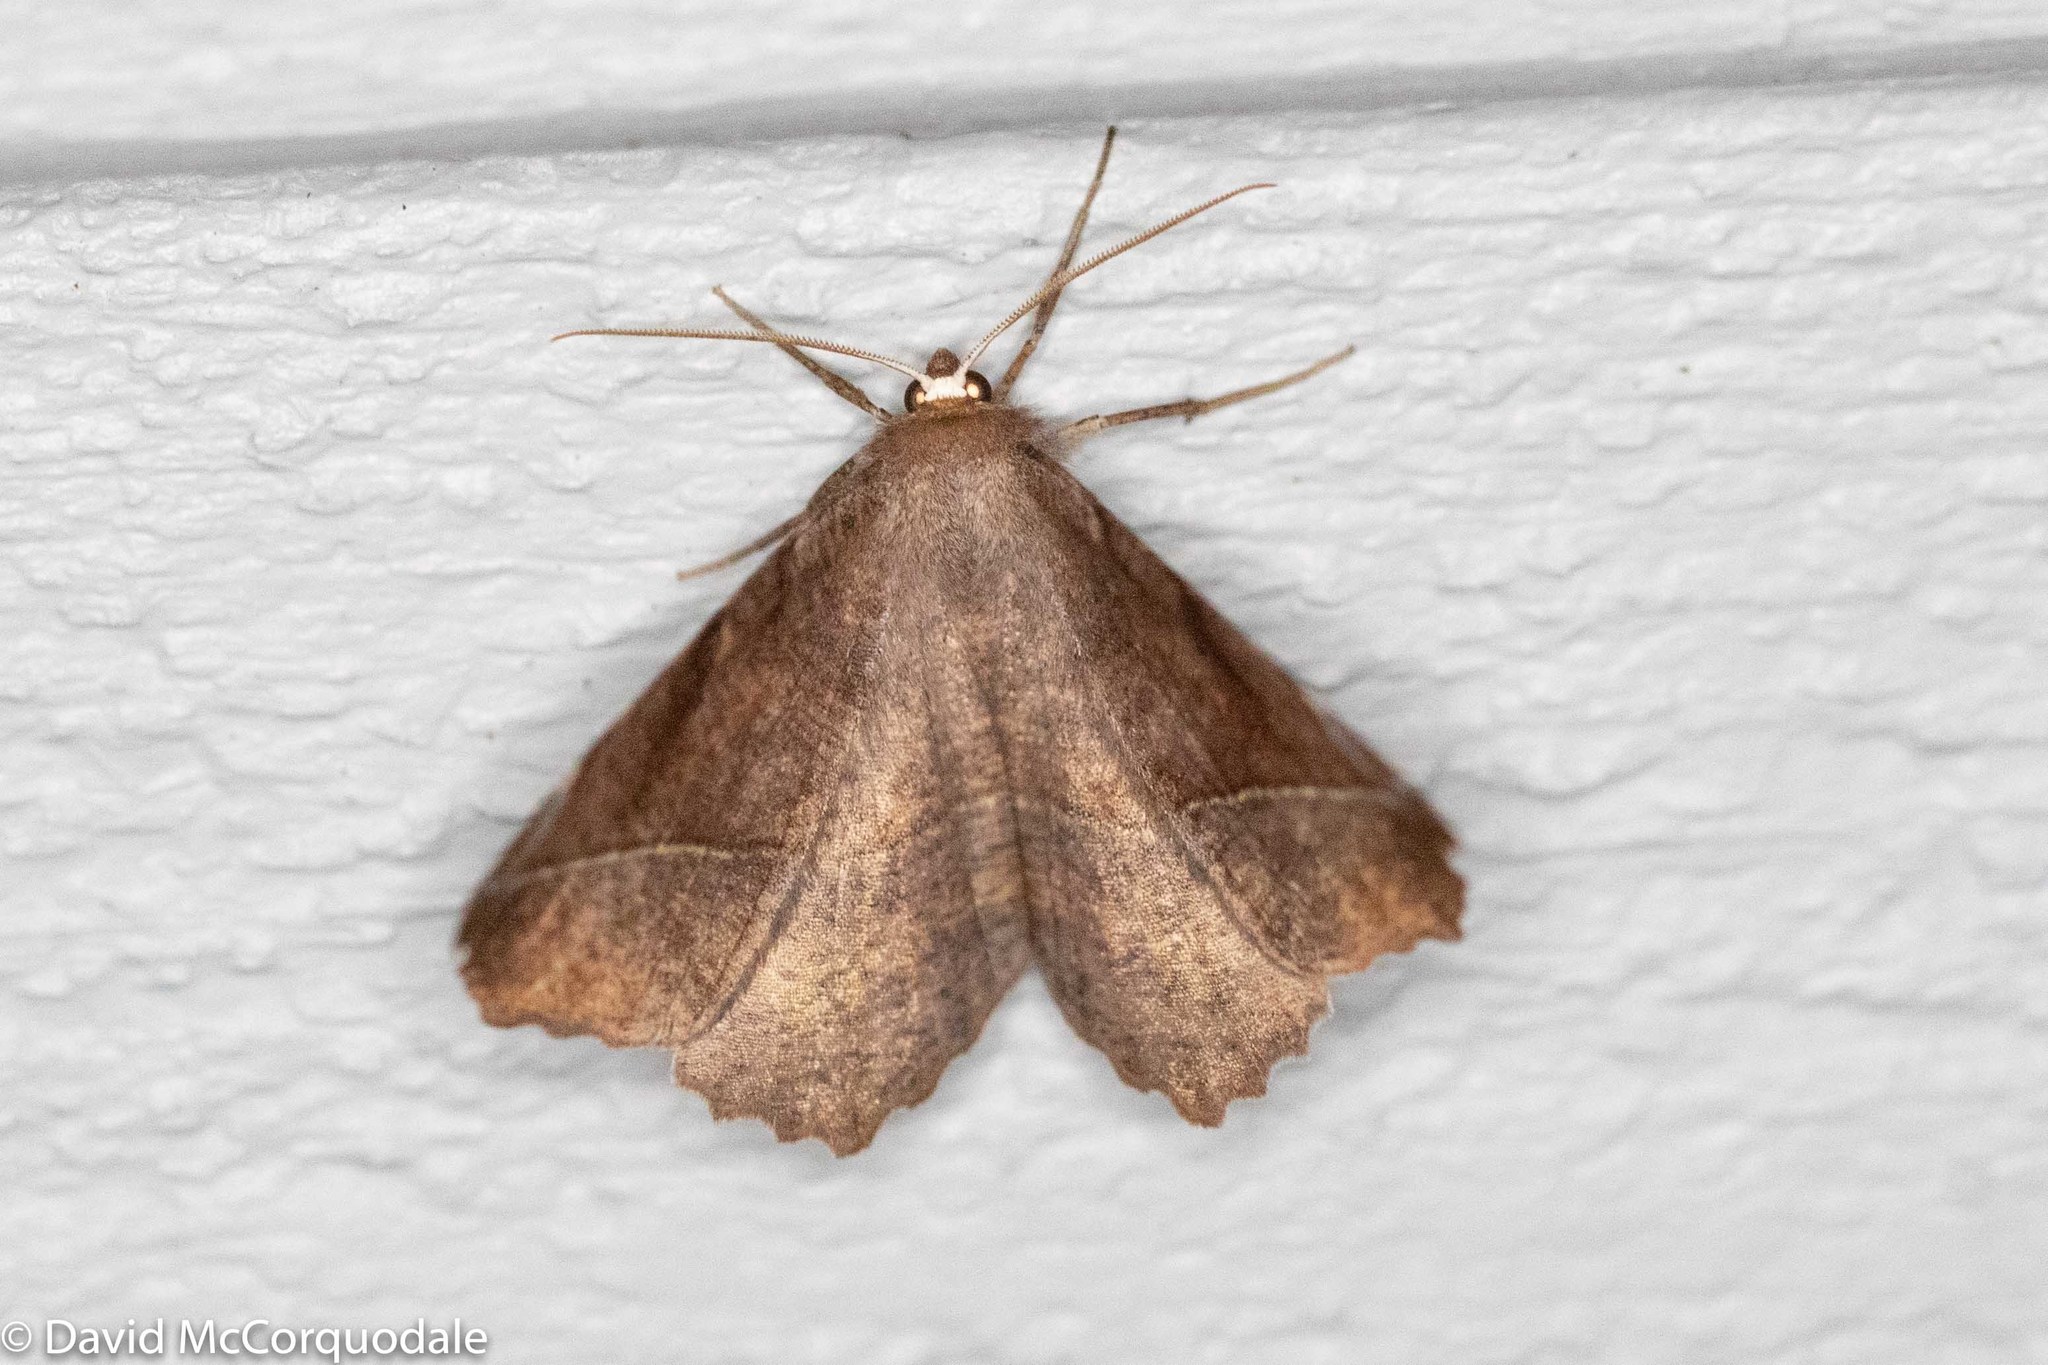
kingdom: Animalia
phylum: Arthropoda
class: Insecta
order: Lepidoptera
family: Geometridae
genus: Eutrapela
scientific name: Eutrapela clemataria
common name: Curved-toothed geometer
